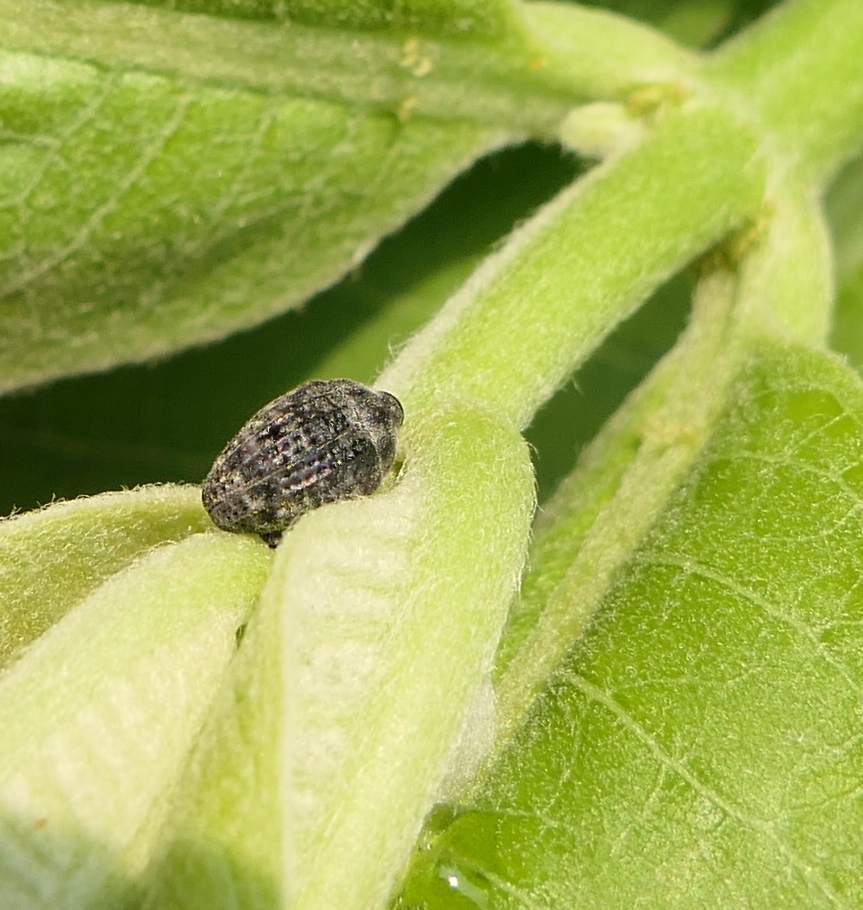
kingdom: Animalia
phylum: Arthropoda
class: Insecta
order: Coleoptera
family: Curculionidae
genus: Rhyssomatus
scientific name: Rhyssomatus lineaticollis
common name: Milkweed stem weevil
